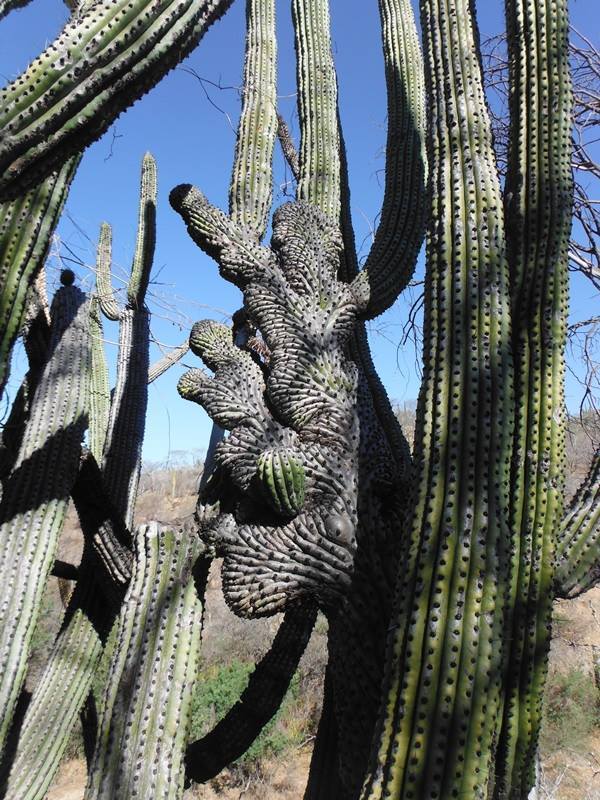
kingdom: Plantae
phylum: Tracheophyta
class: Magnoliopsida
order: Caryophyllales
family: Cactaceae
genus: Stenocereus
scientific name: Stenocereus thurberi
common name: Organ pipe cactus
